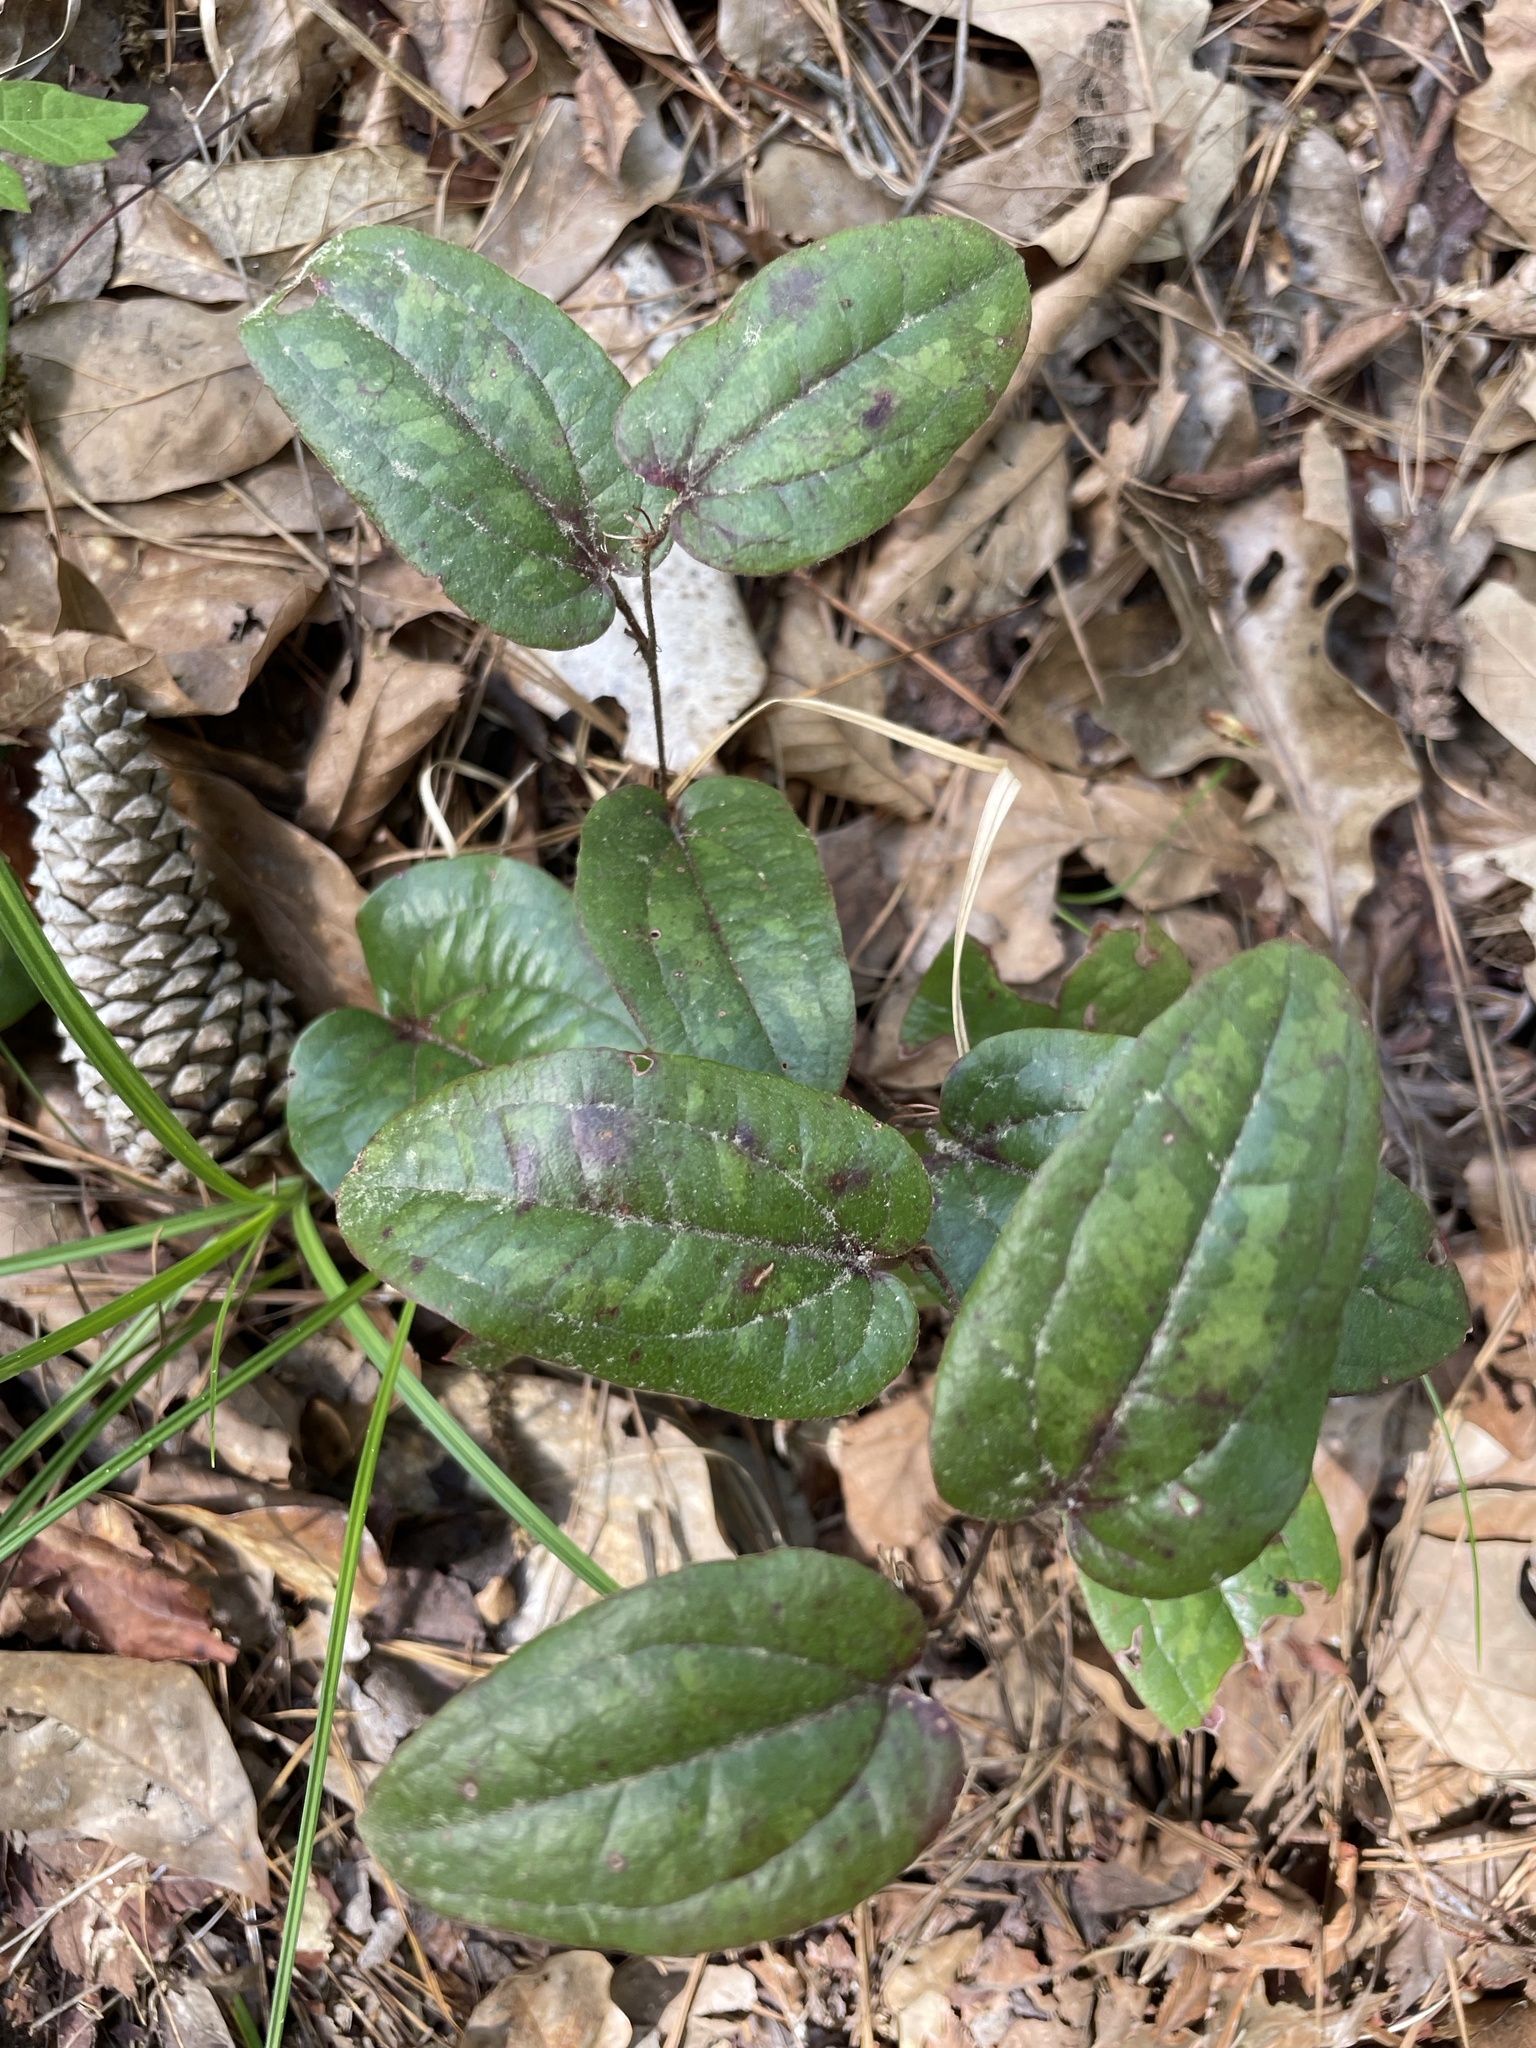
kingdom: Plantae
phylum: Tracheophyta
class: Liliopsida
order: Liliales
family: Smilacaceae
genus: Smilax
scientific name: Smilax pumila
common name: Sarsaparilla-vine
